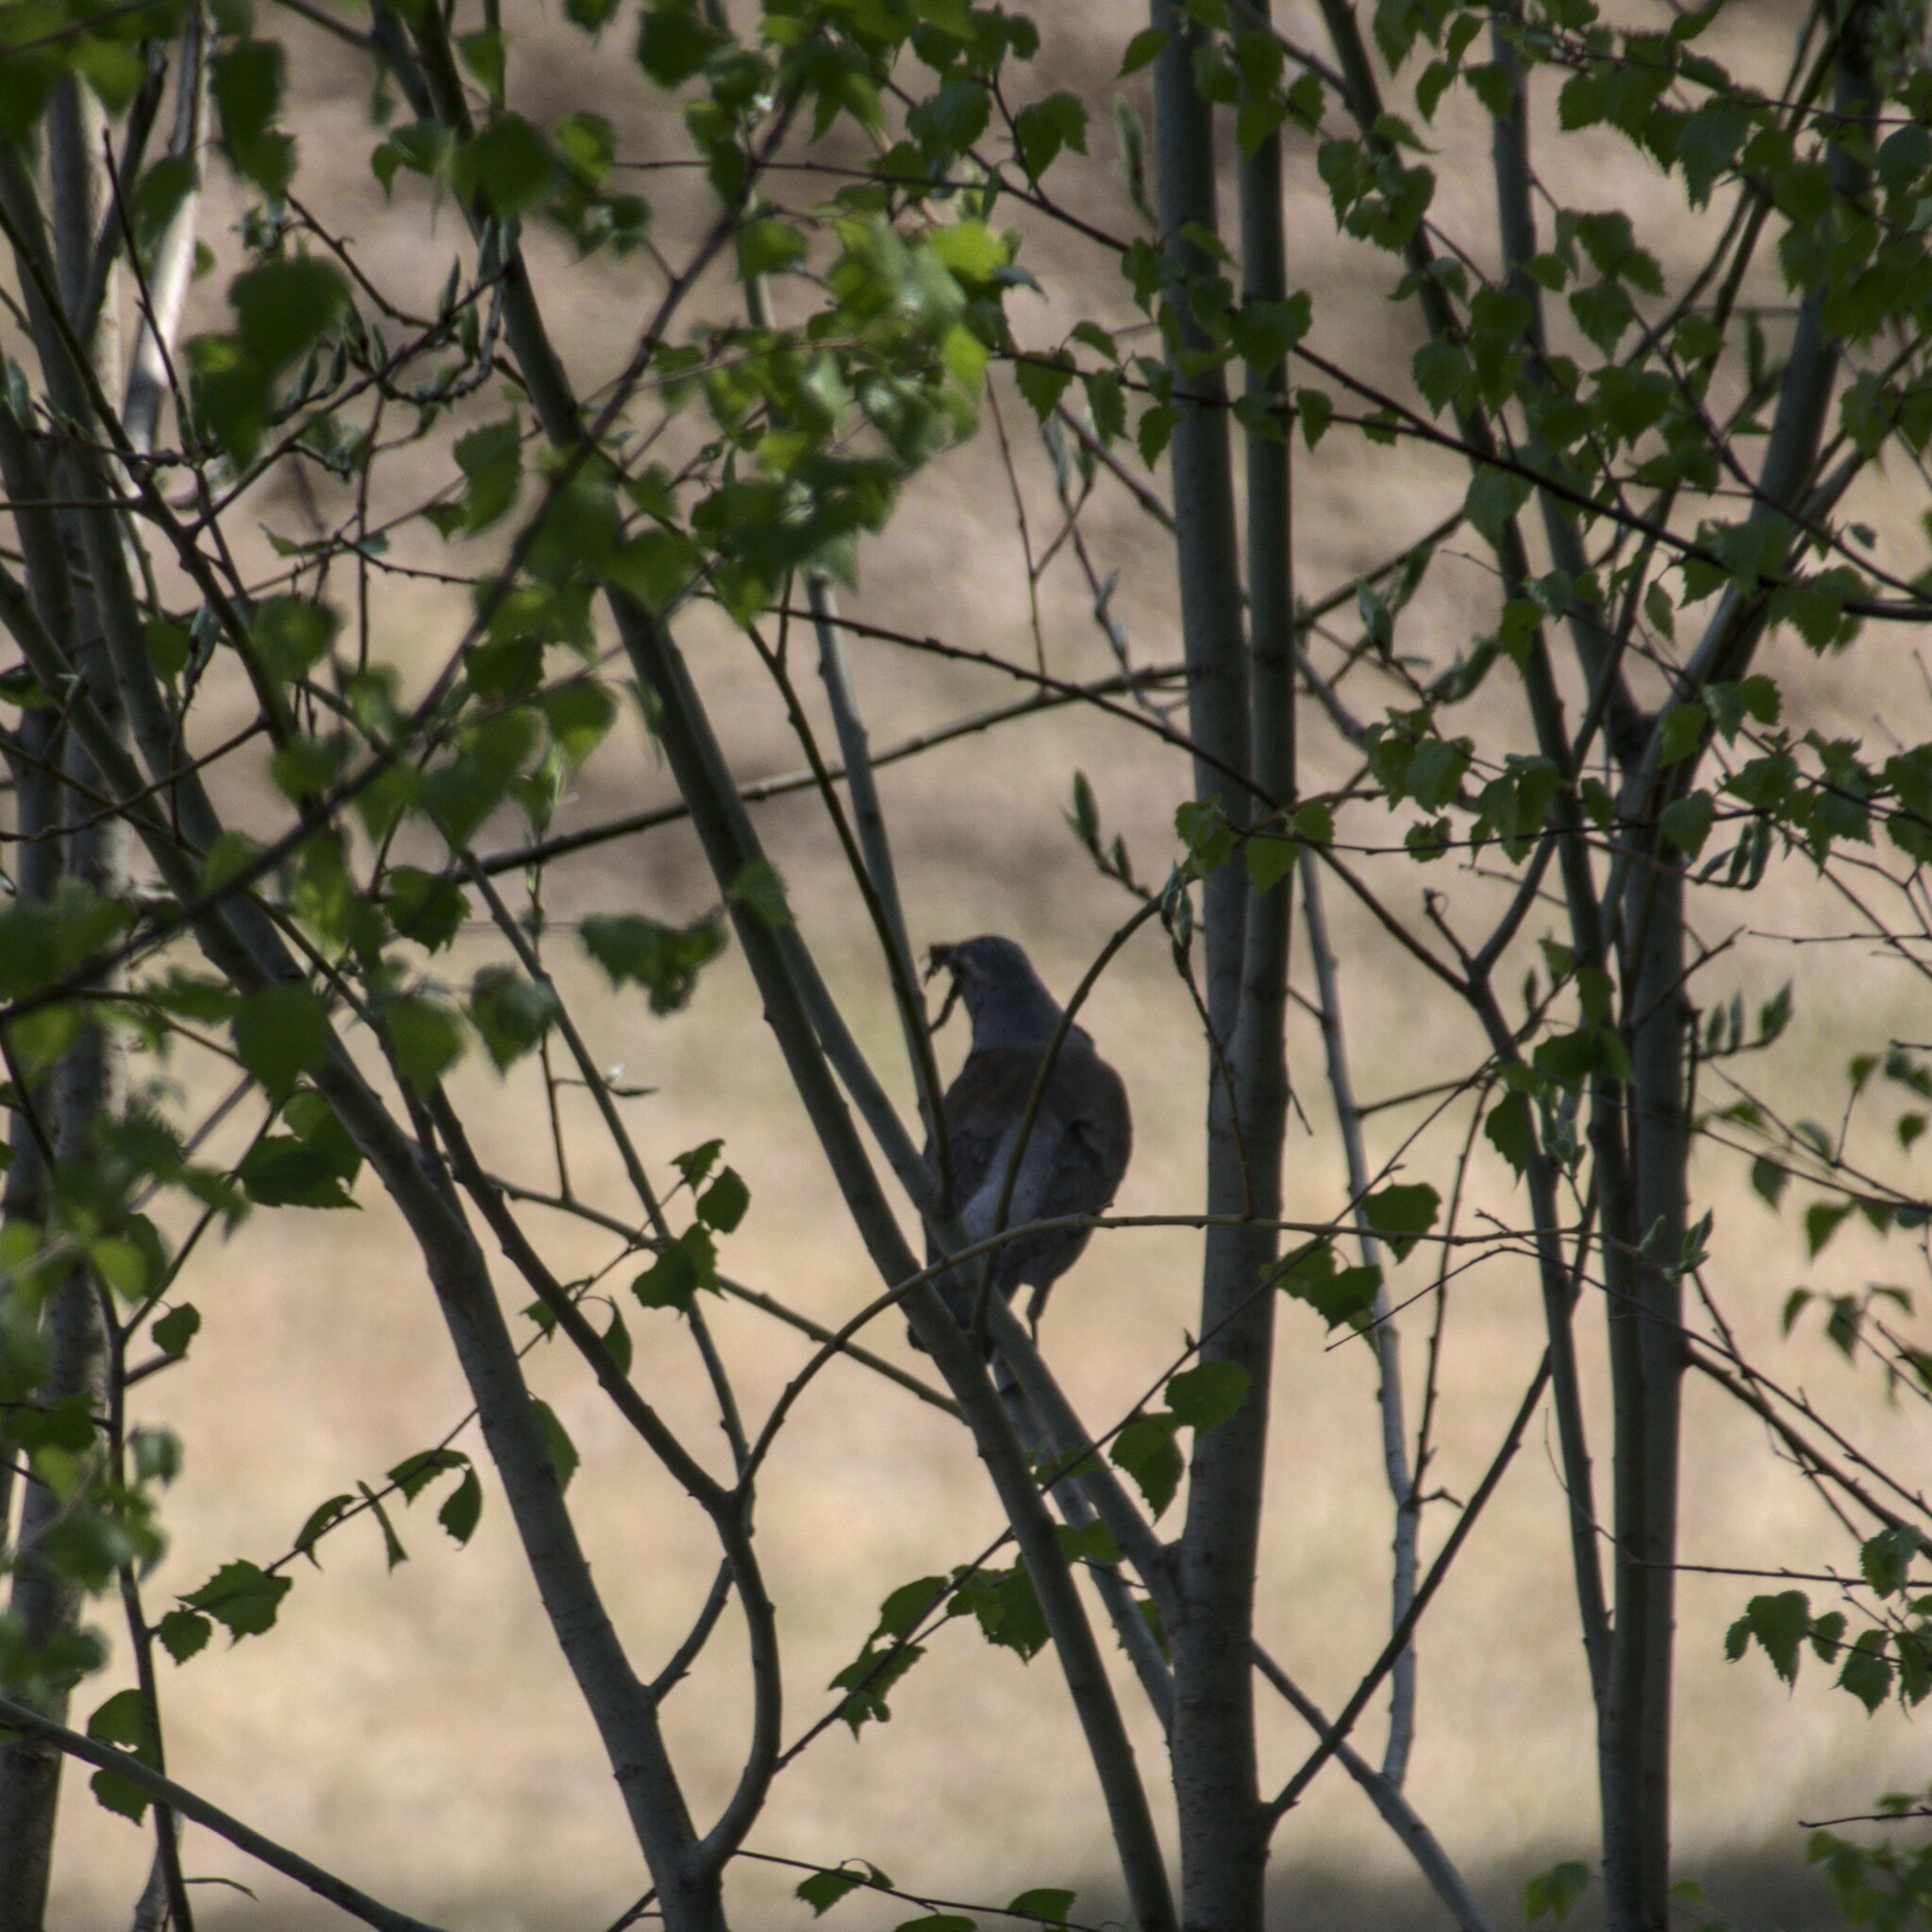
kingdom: Animalia
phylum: Chordata
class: Aves
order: Passeriformes
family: Turdidae
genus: Turdus
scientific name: Turdus pilaris
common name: Fieldfare
